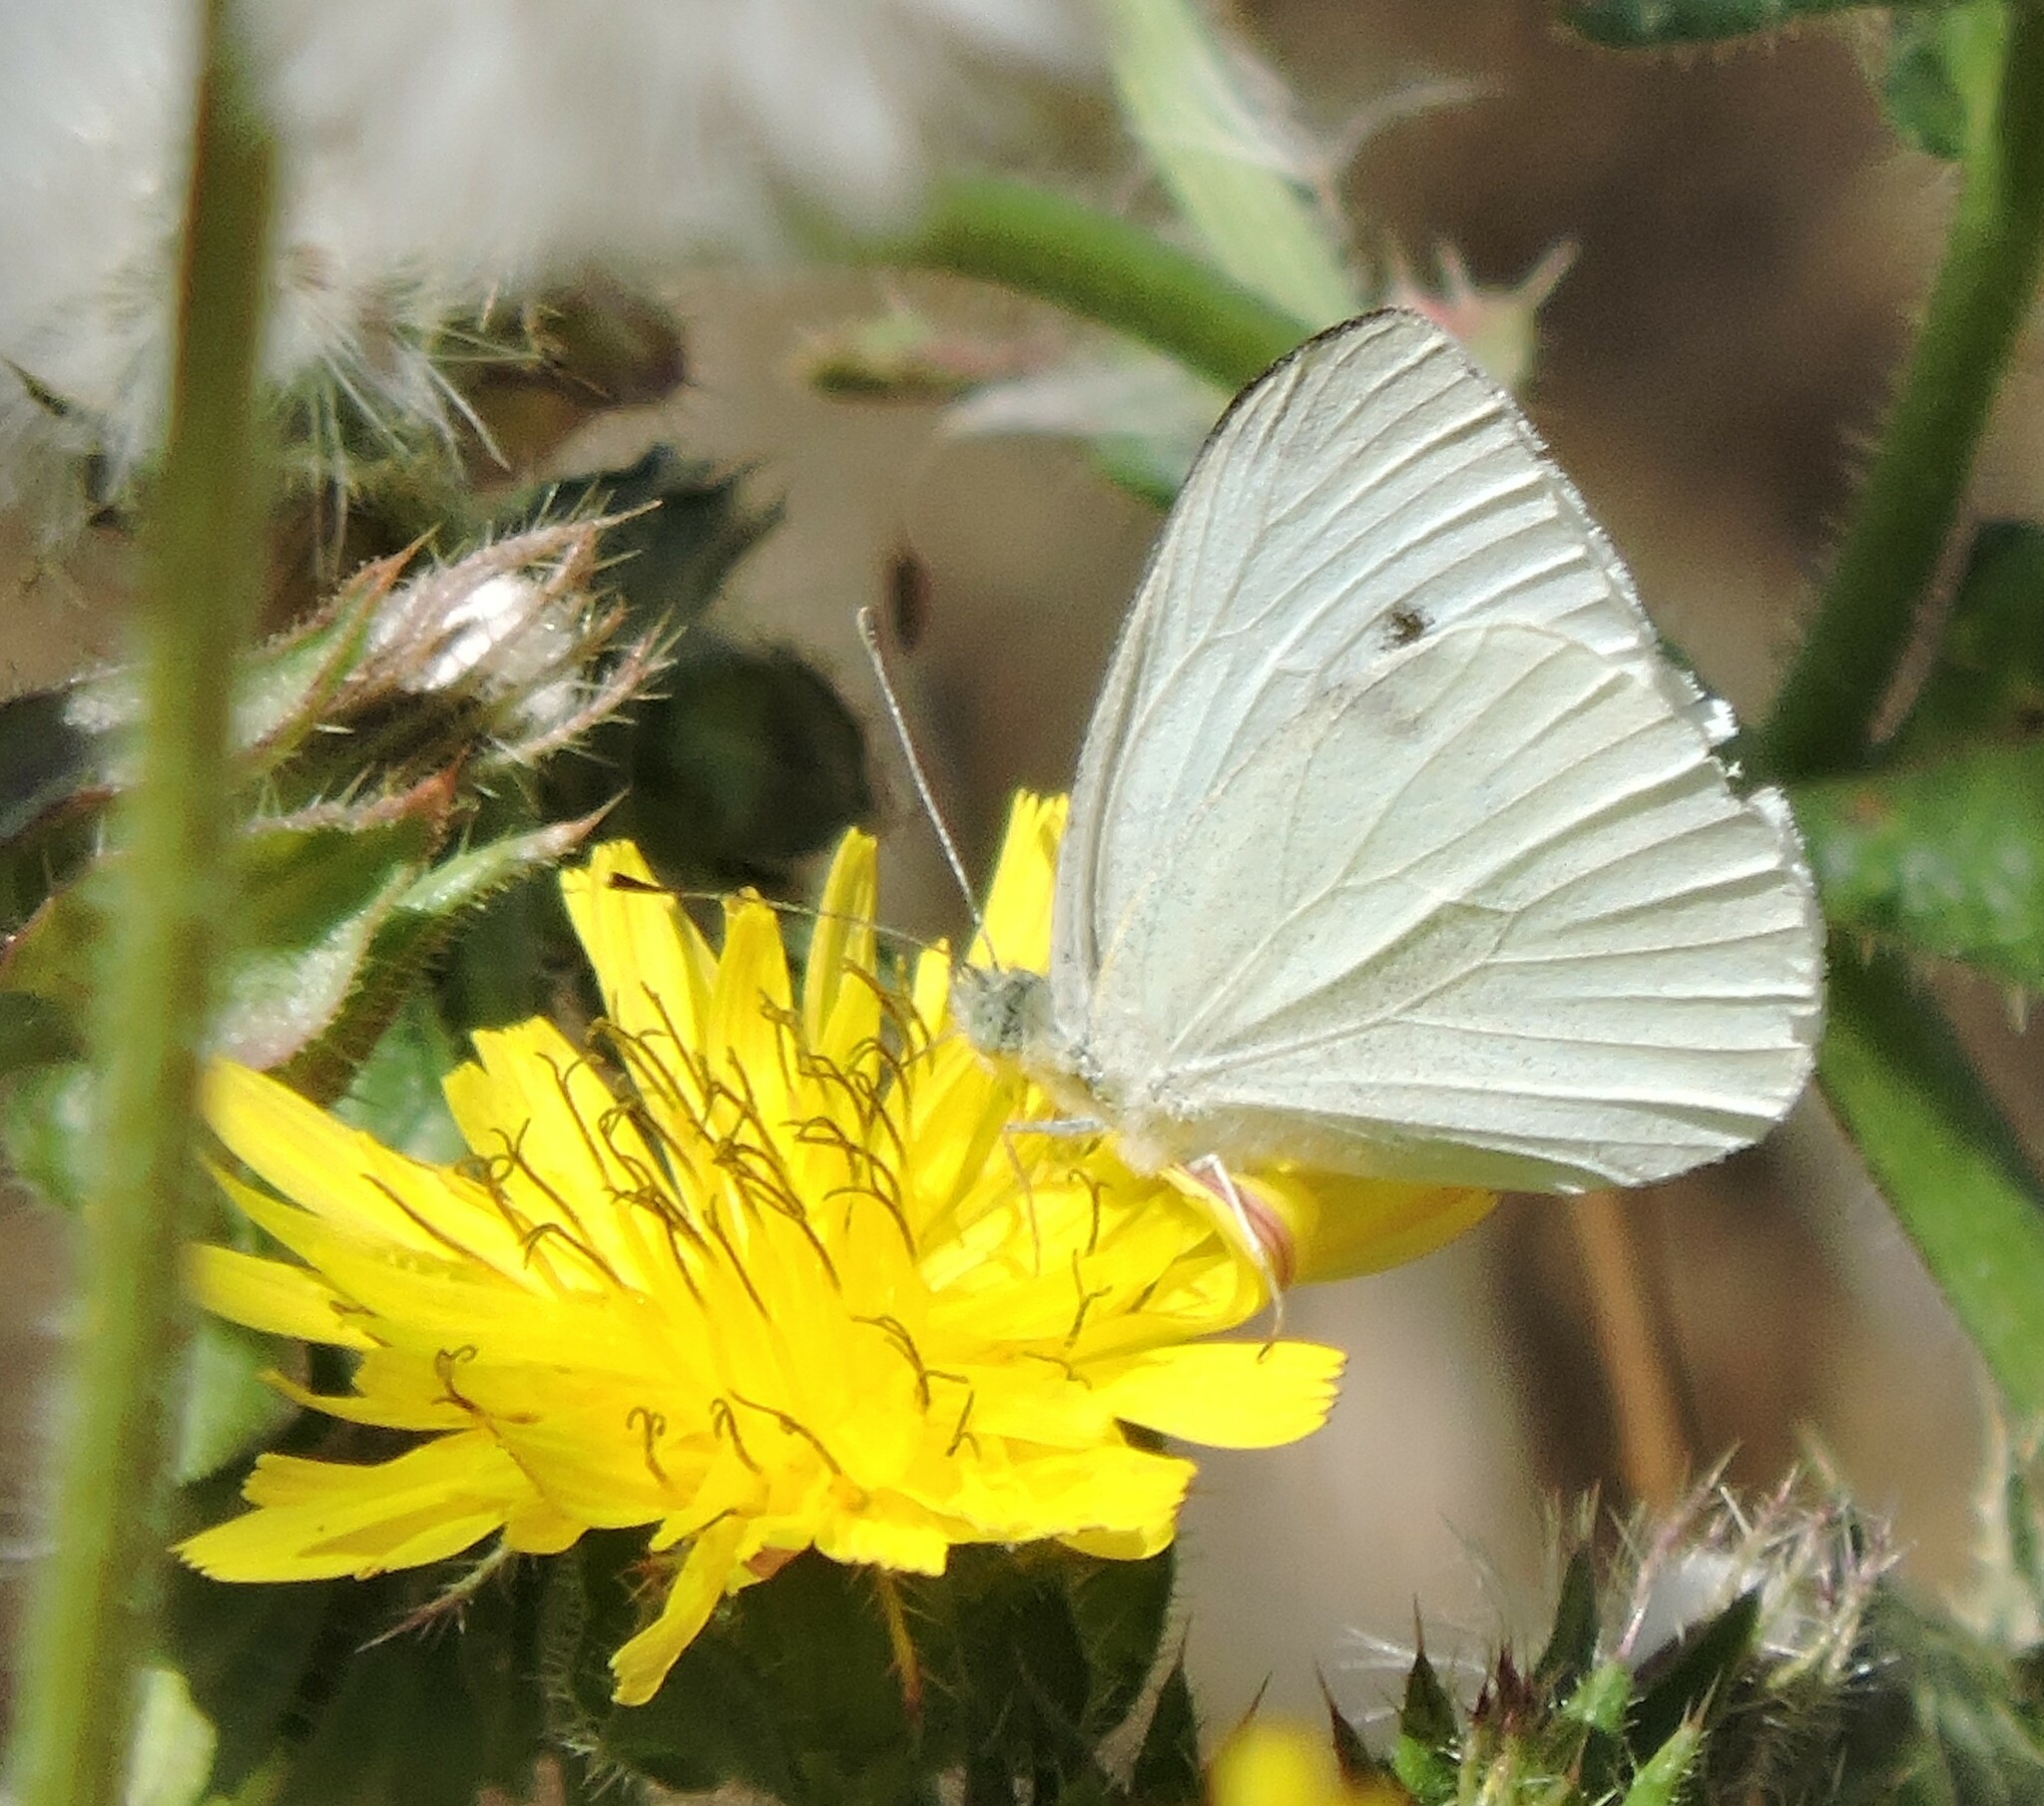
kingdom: Animalia
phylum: Arthropoda
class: Insecta
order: Lepidoptera
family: Pieridae
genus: Pieris
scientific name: Pieris rapae
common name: Small white
